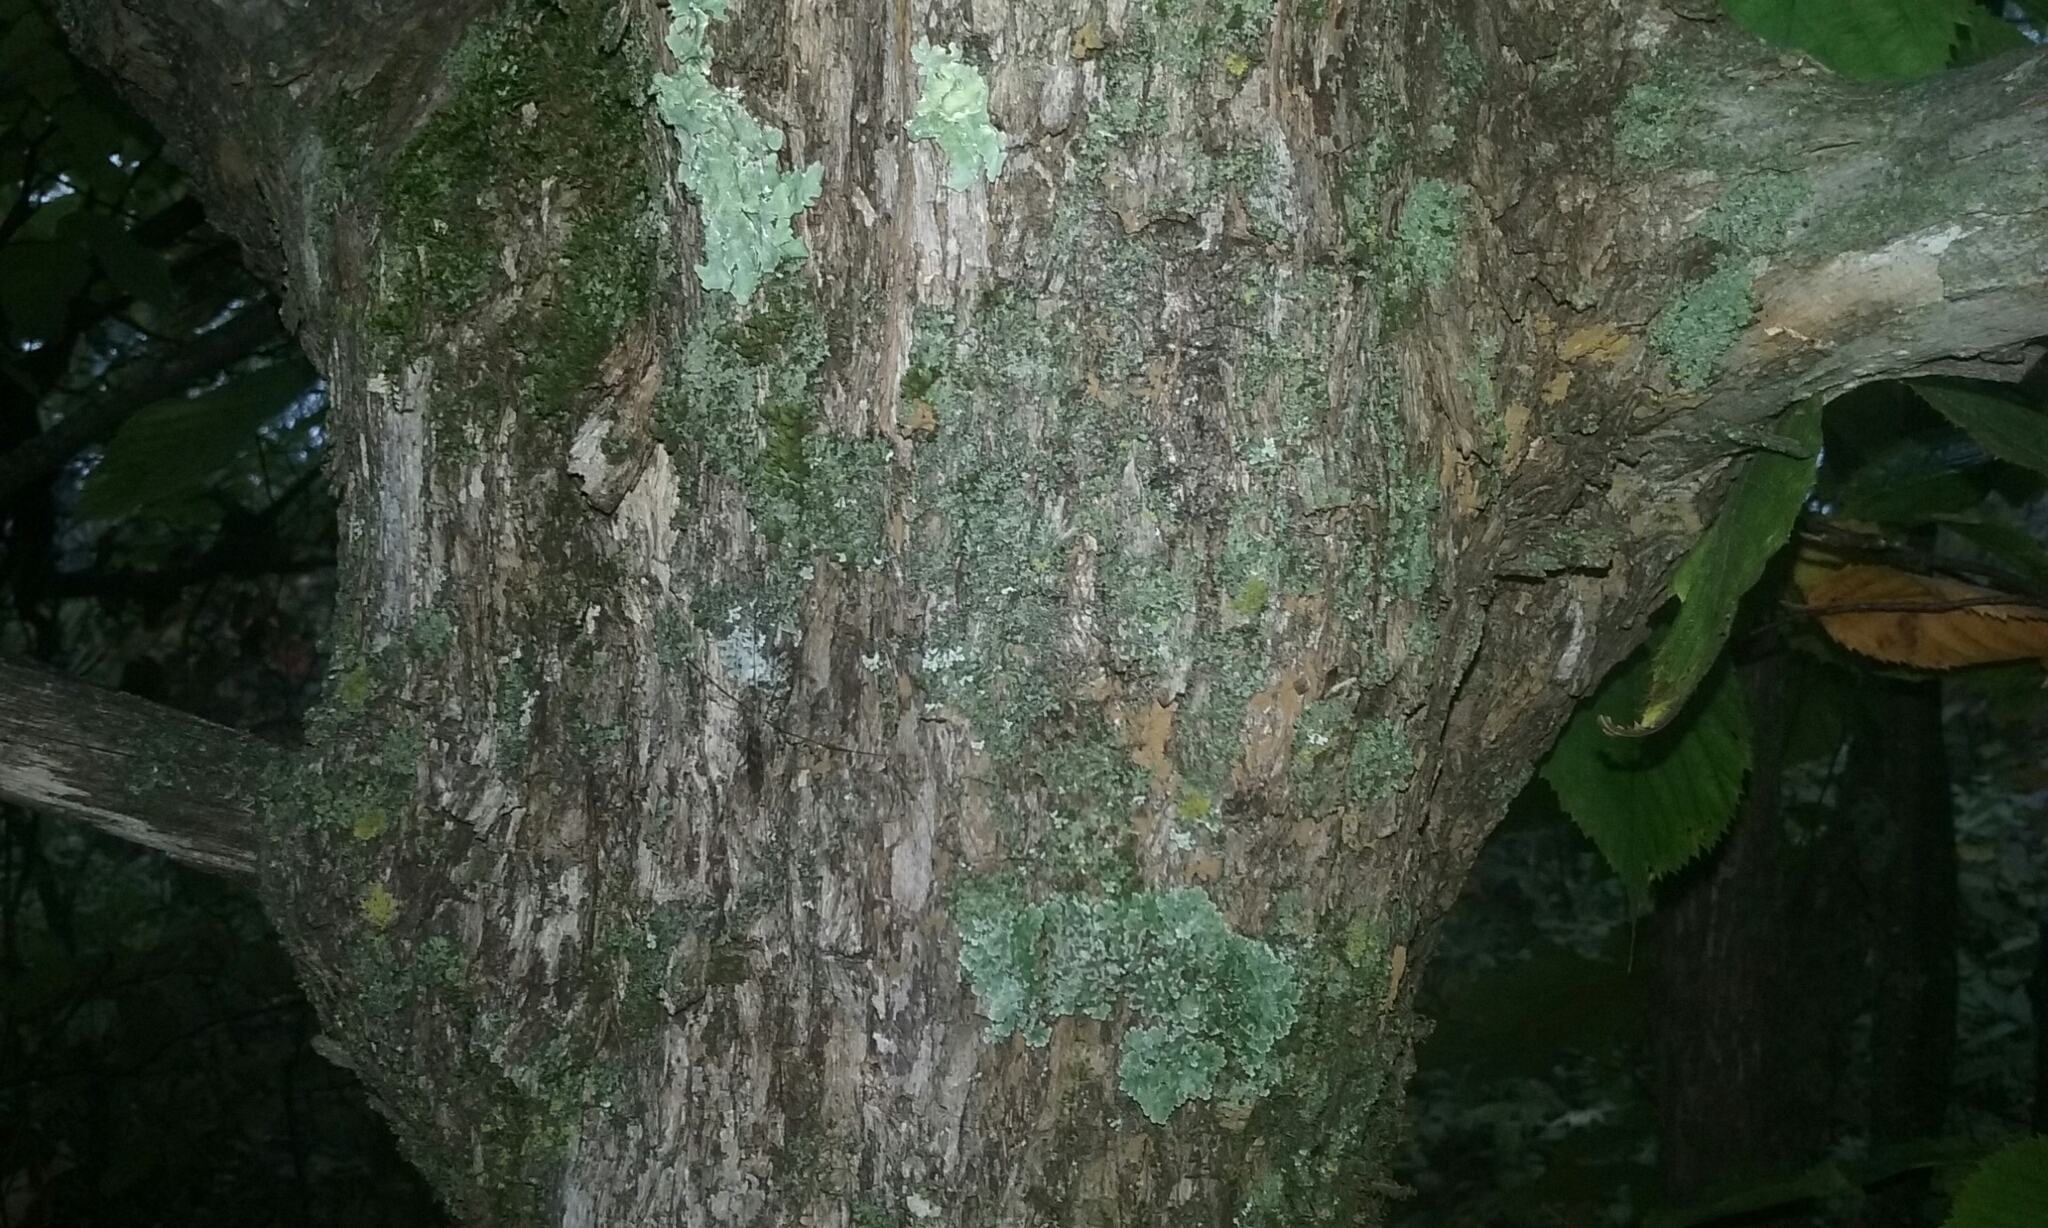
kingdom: Plantae
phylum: Tracheophyta
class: Magnoliopsida
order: Fagales
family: Betulaceae
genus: Ostrya
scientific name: Ostrya virginiana
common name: Ironwood
